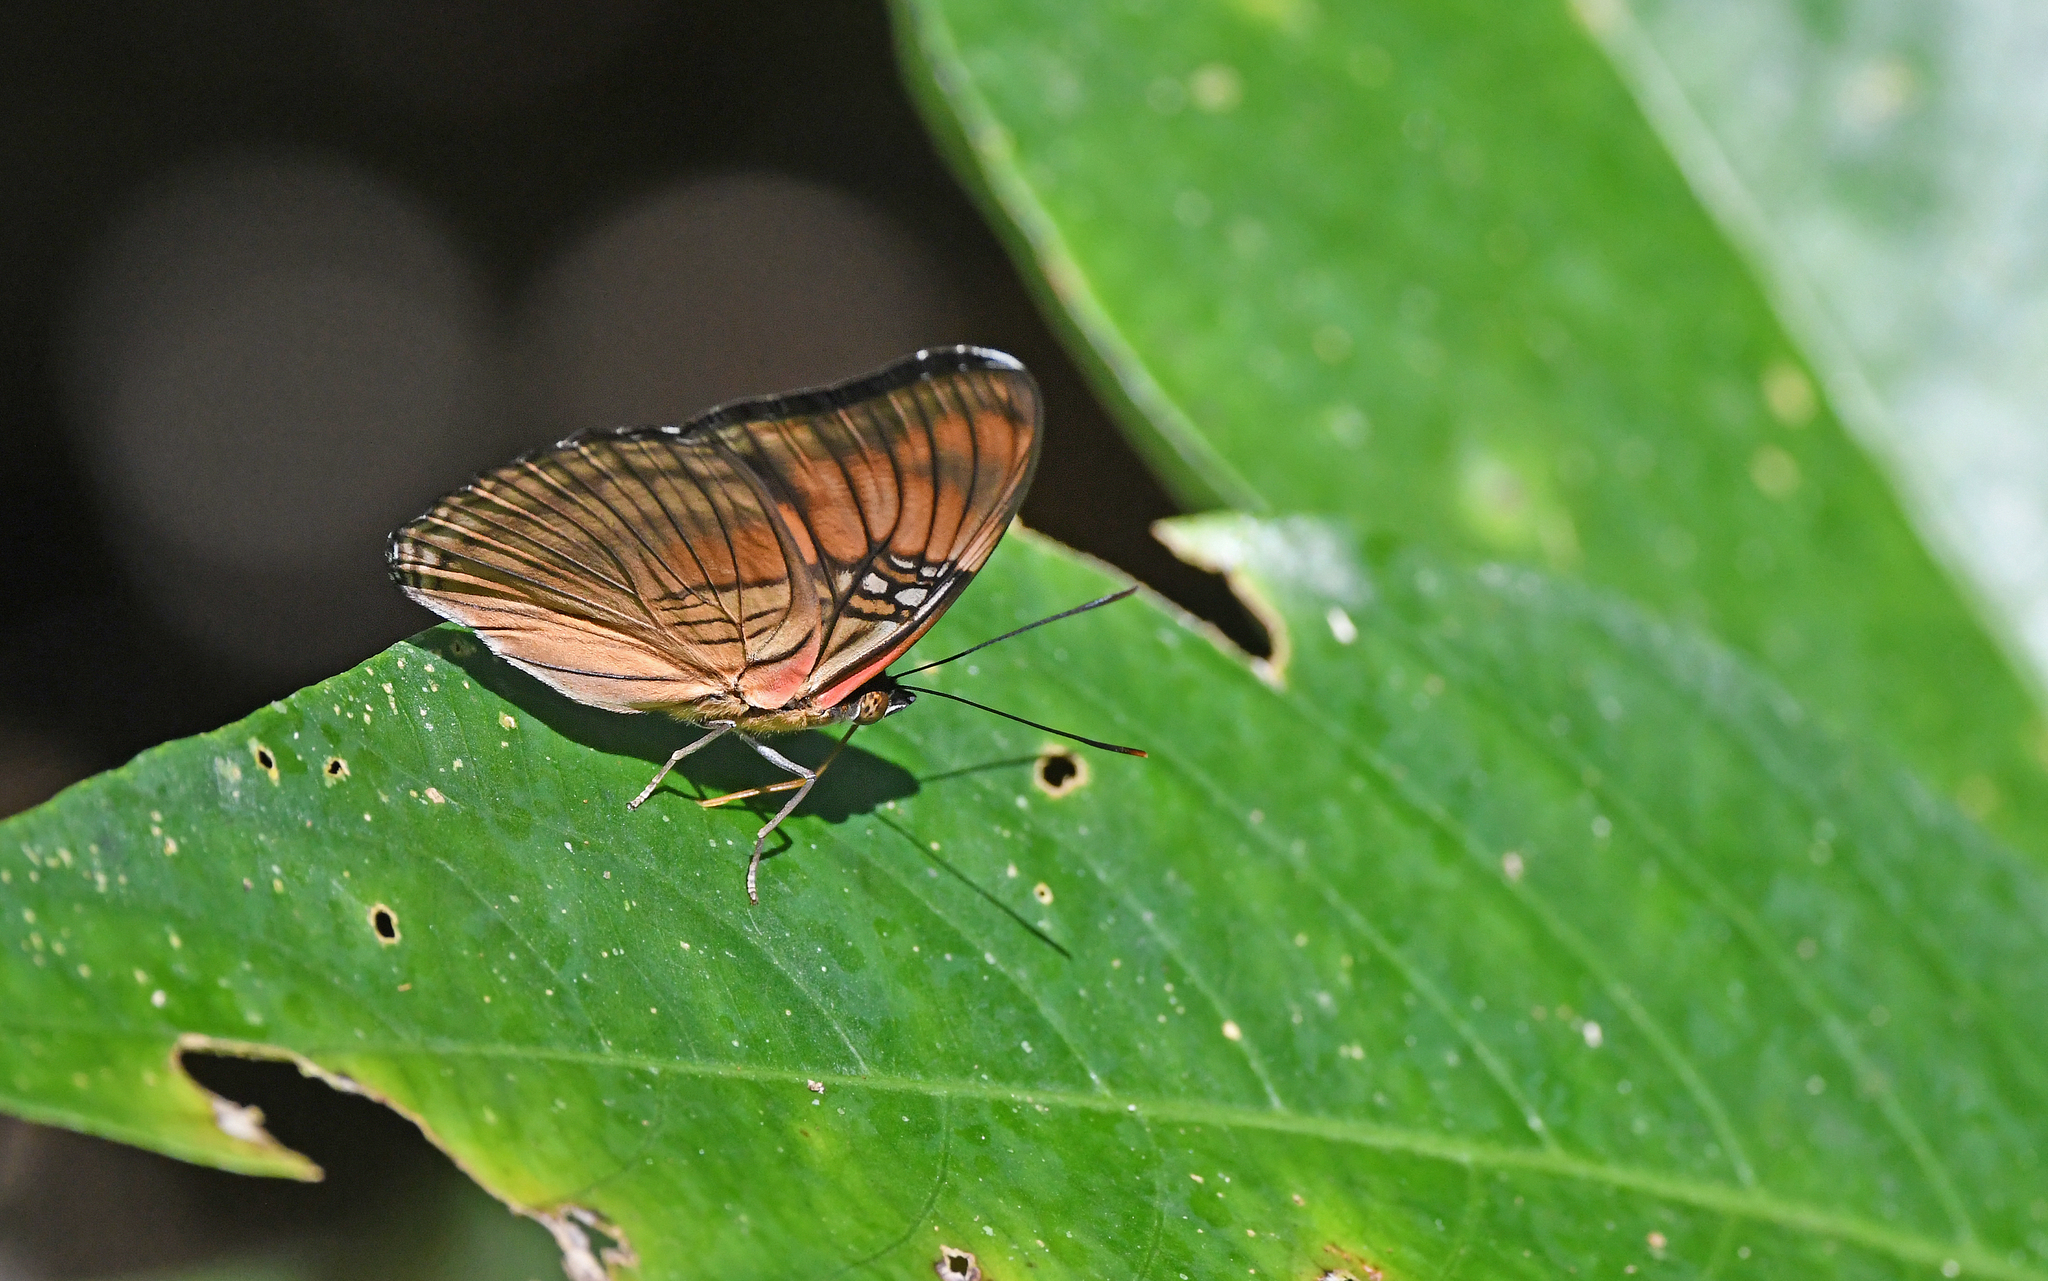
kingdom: Animalia
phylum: Arthropoda
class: Insecta
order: Lepidoptera
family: Nymphalidae
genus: Limenitis
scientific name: Limenitis mesentina
